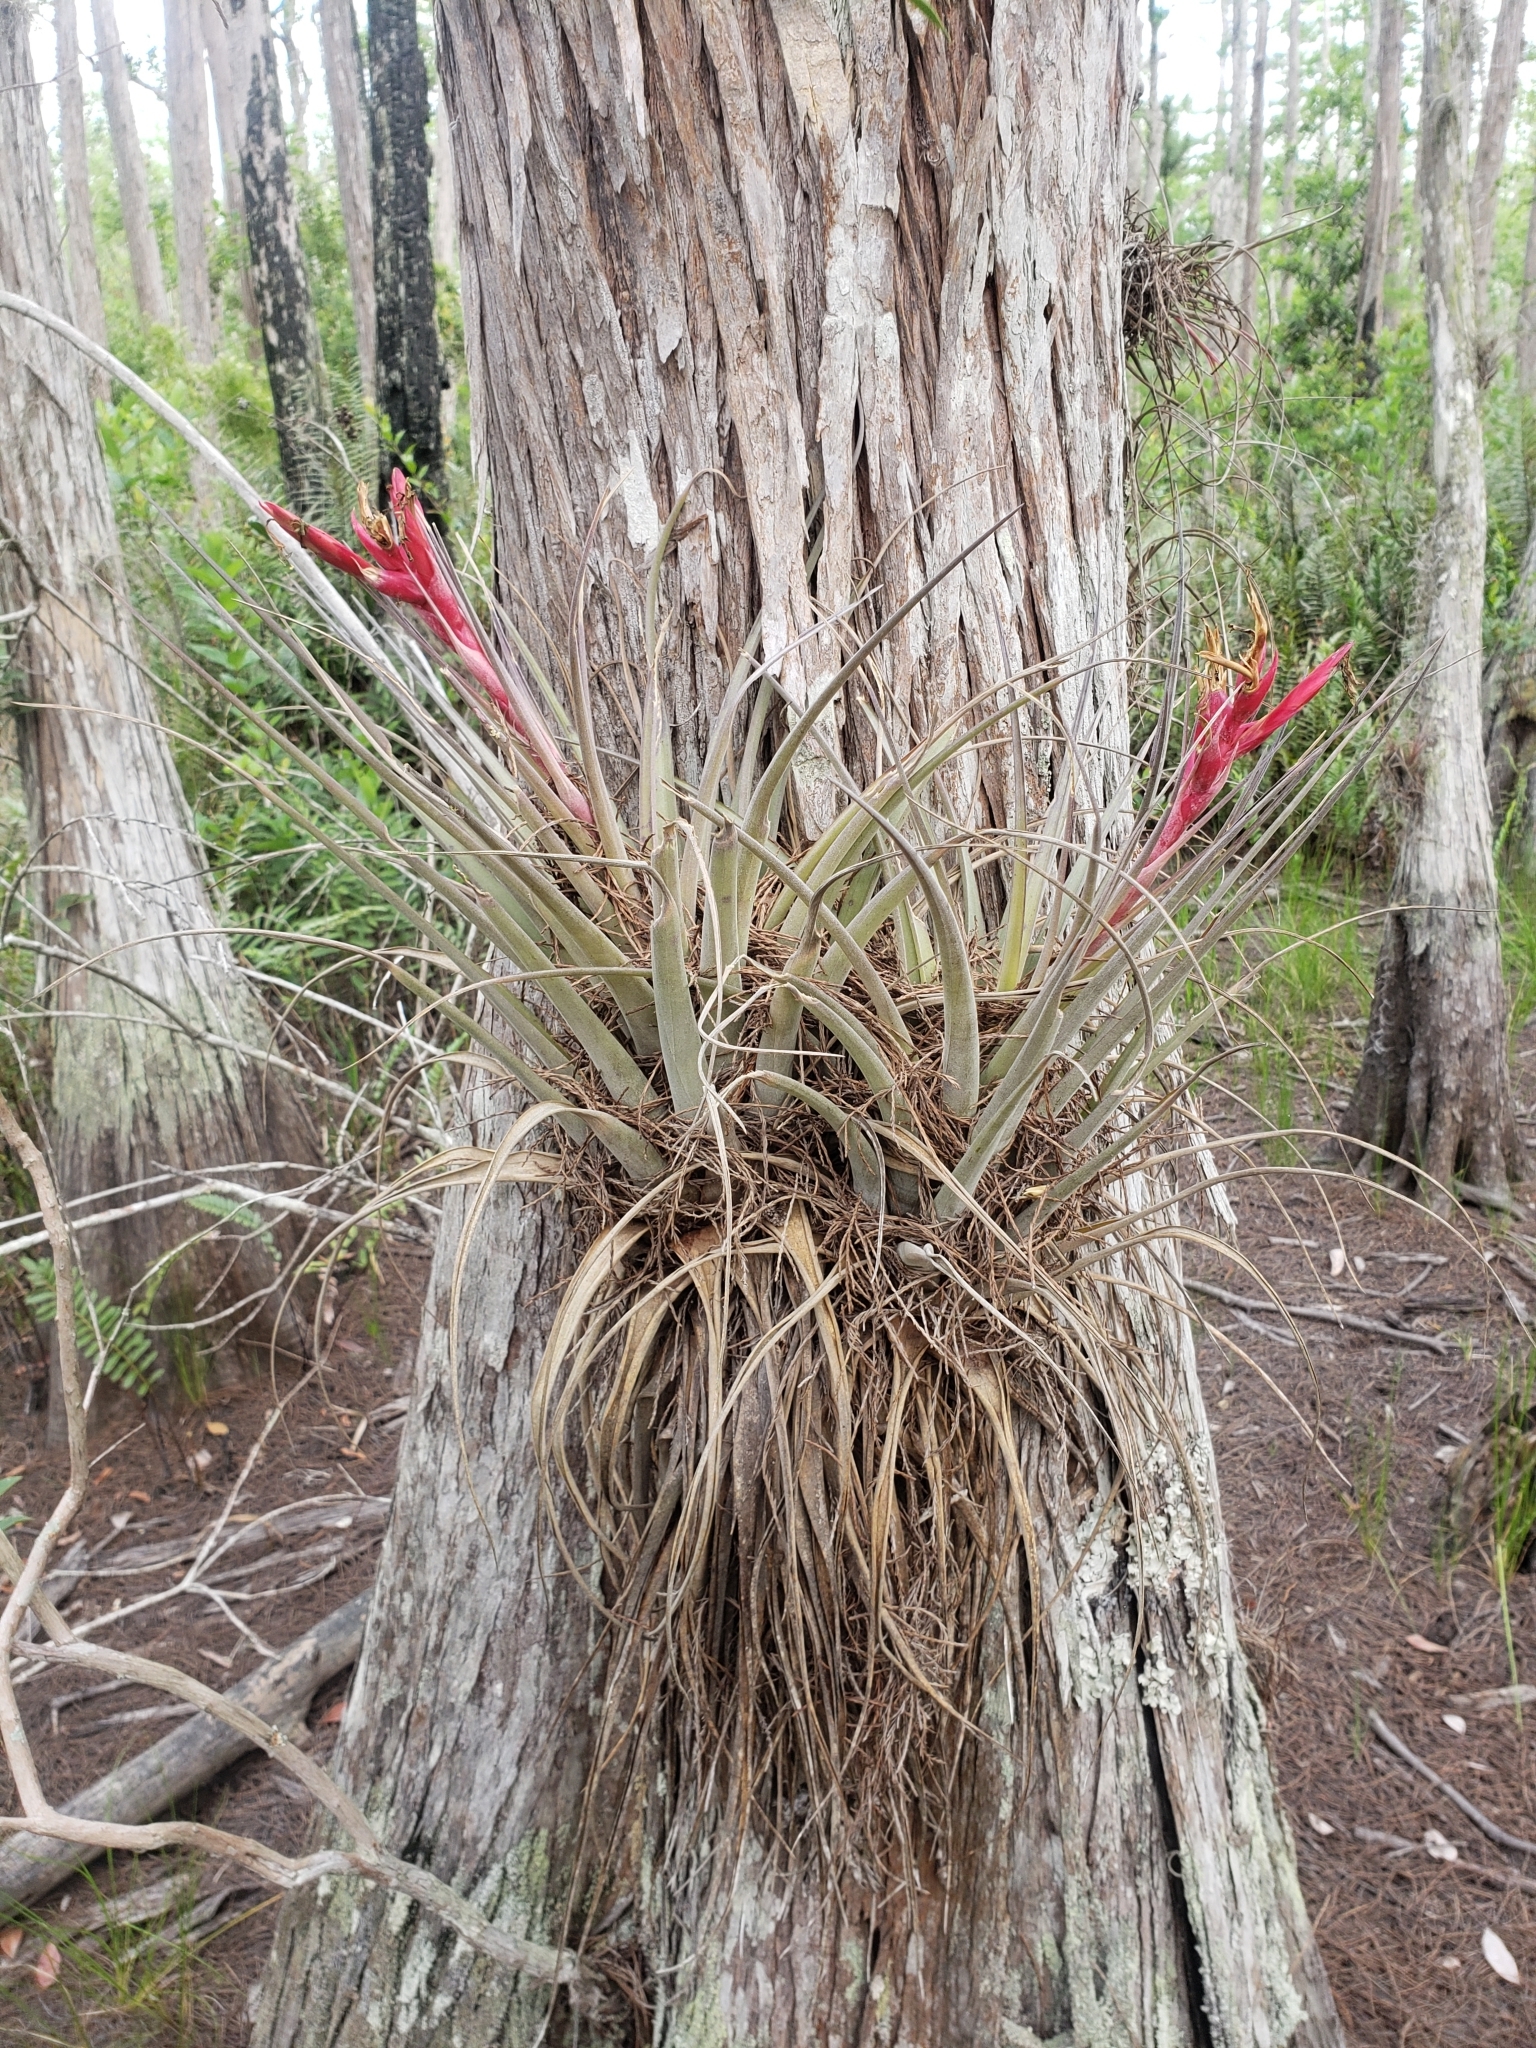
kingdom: Plantae
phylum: Tracheophyta
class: Liliopsida
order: Poales
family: Bromeliaceae
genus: Tillandsia
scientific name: Tillandsia fasciculata
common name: Giant airplant
